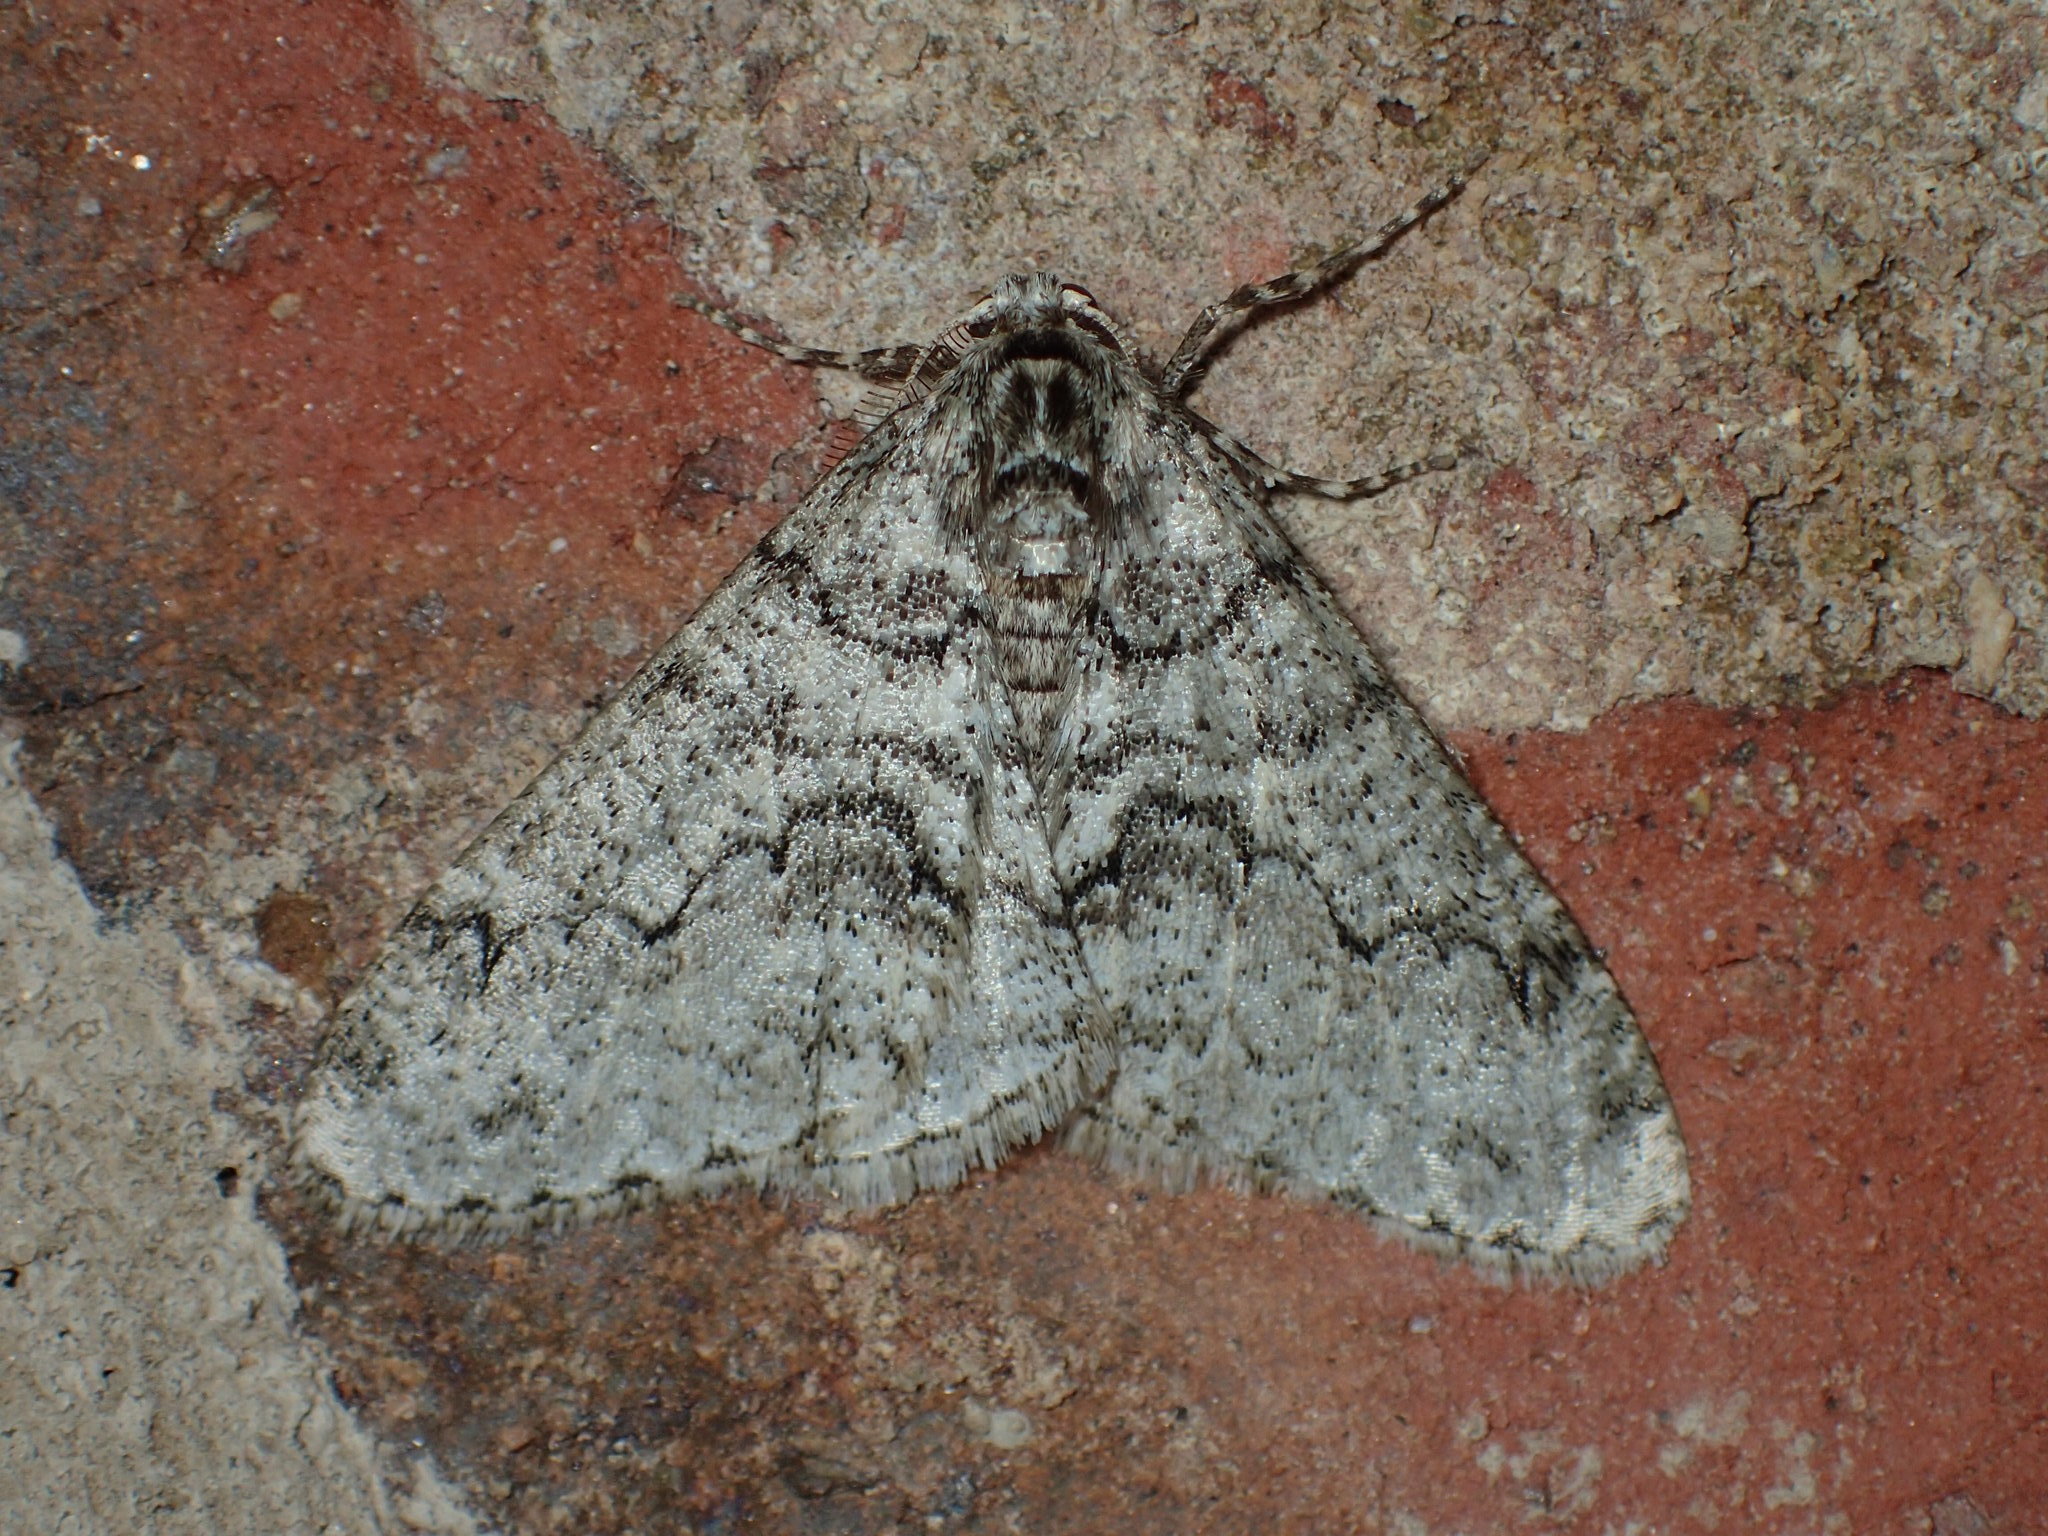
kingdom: Animalia
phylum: Arthropoda
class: Insecta
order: Lepidoptera
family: Geometridae
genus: Phigalia
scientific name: Phigalia denticulata
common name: Toothed phigalia
